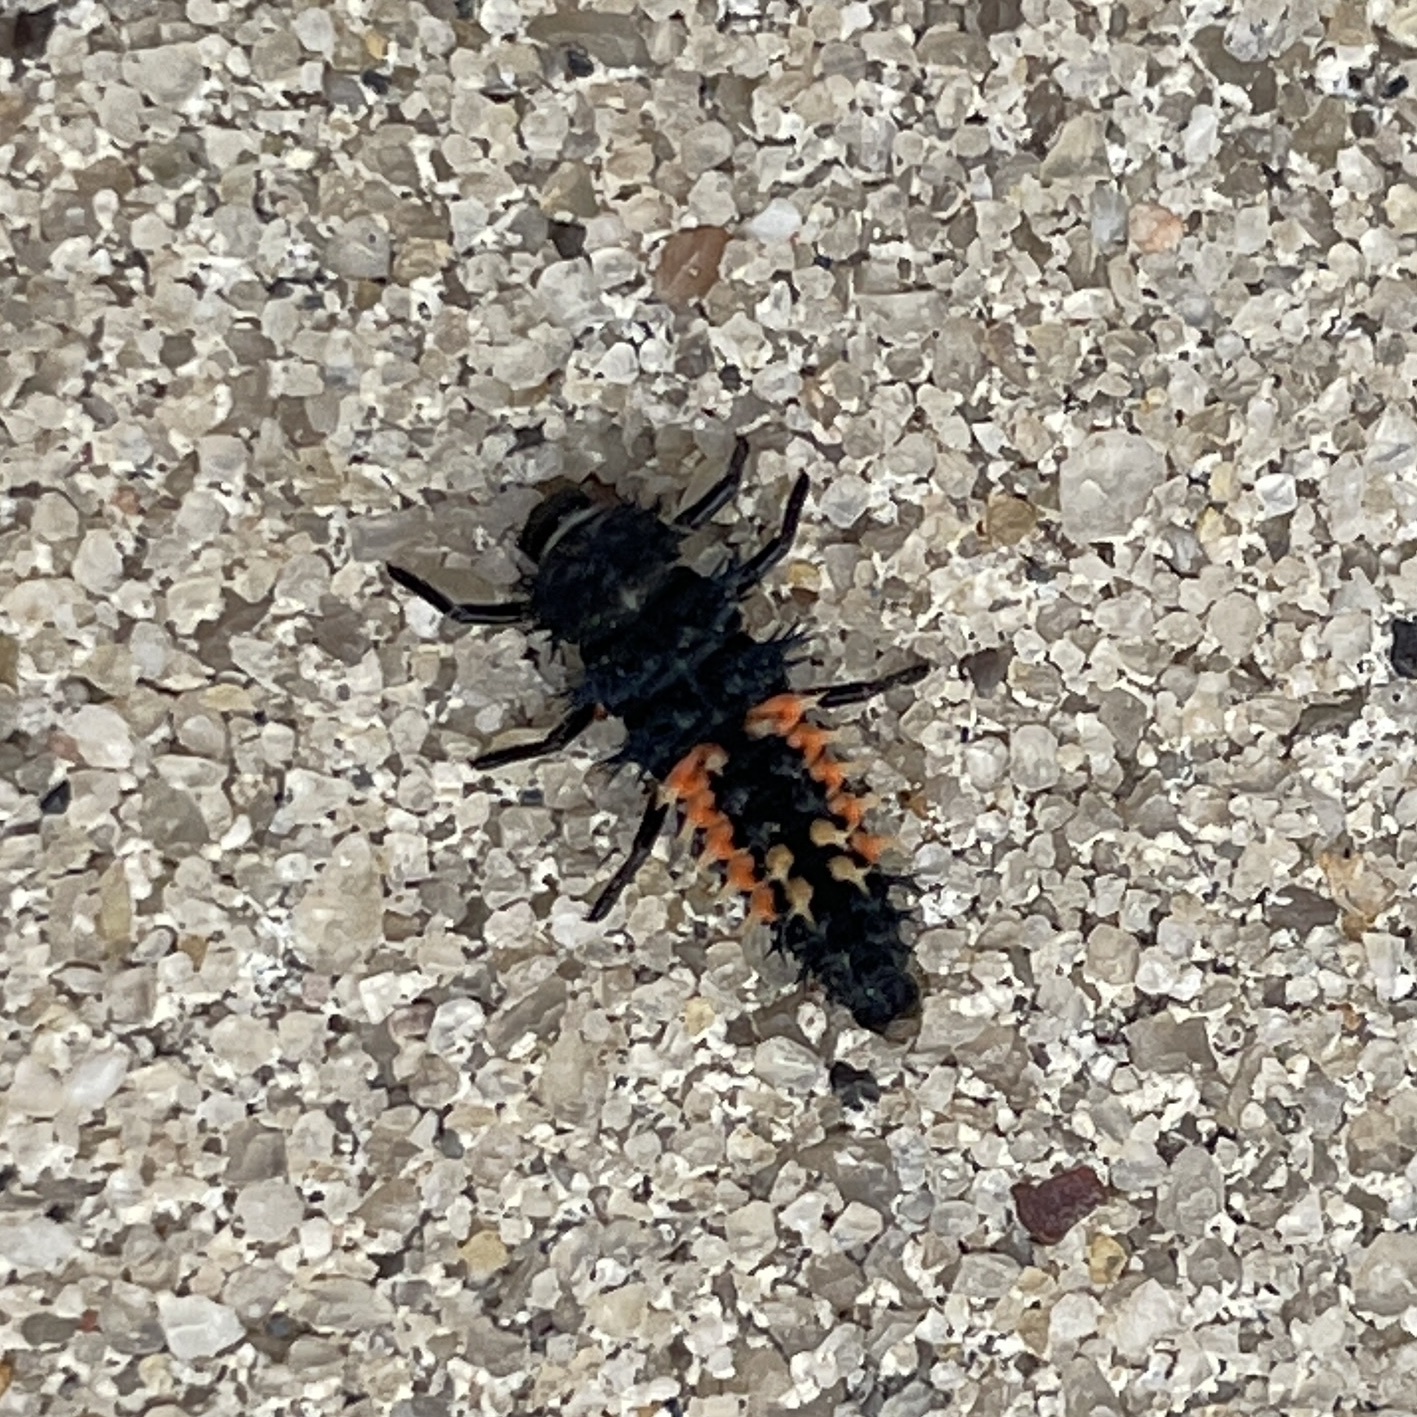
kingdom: Animalia
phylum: Arthropoda
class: Insecta
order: Coleoptera
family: Coccinellidae
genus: Harmonia
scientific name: Harmonia axyridis
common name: Harlequin ladybird
